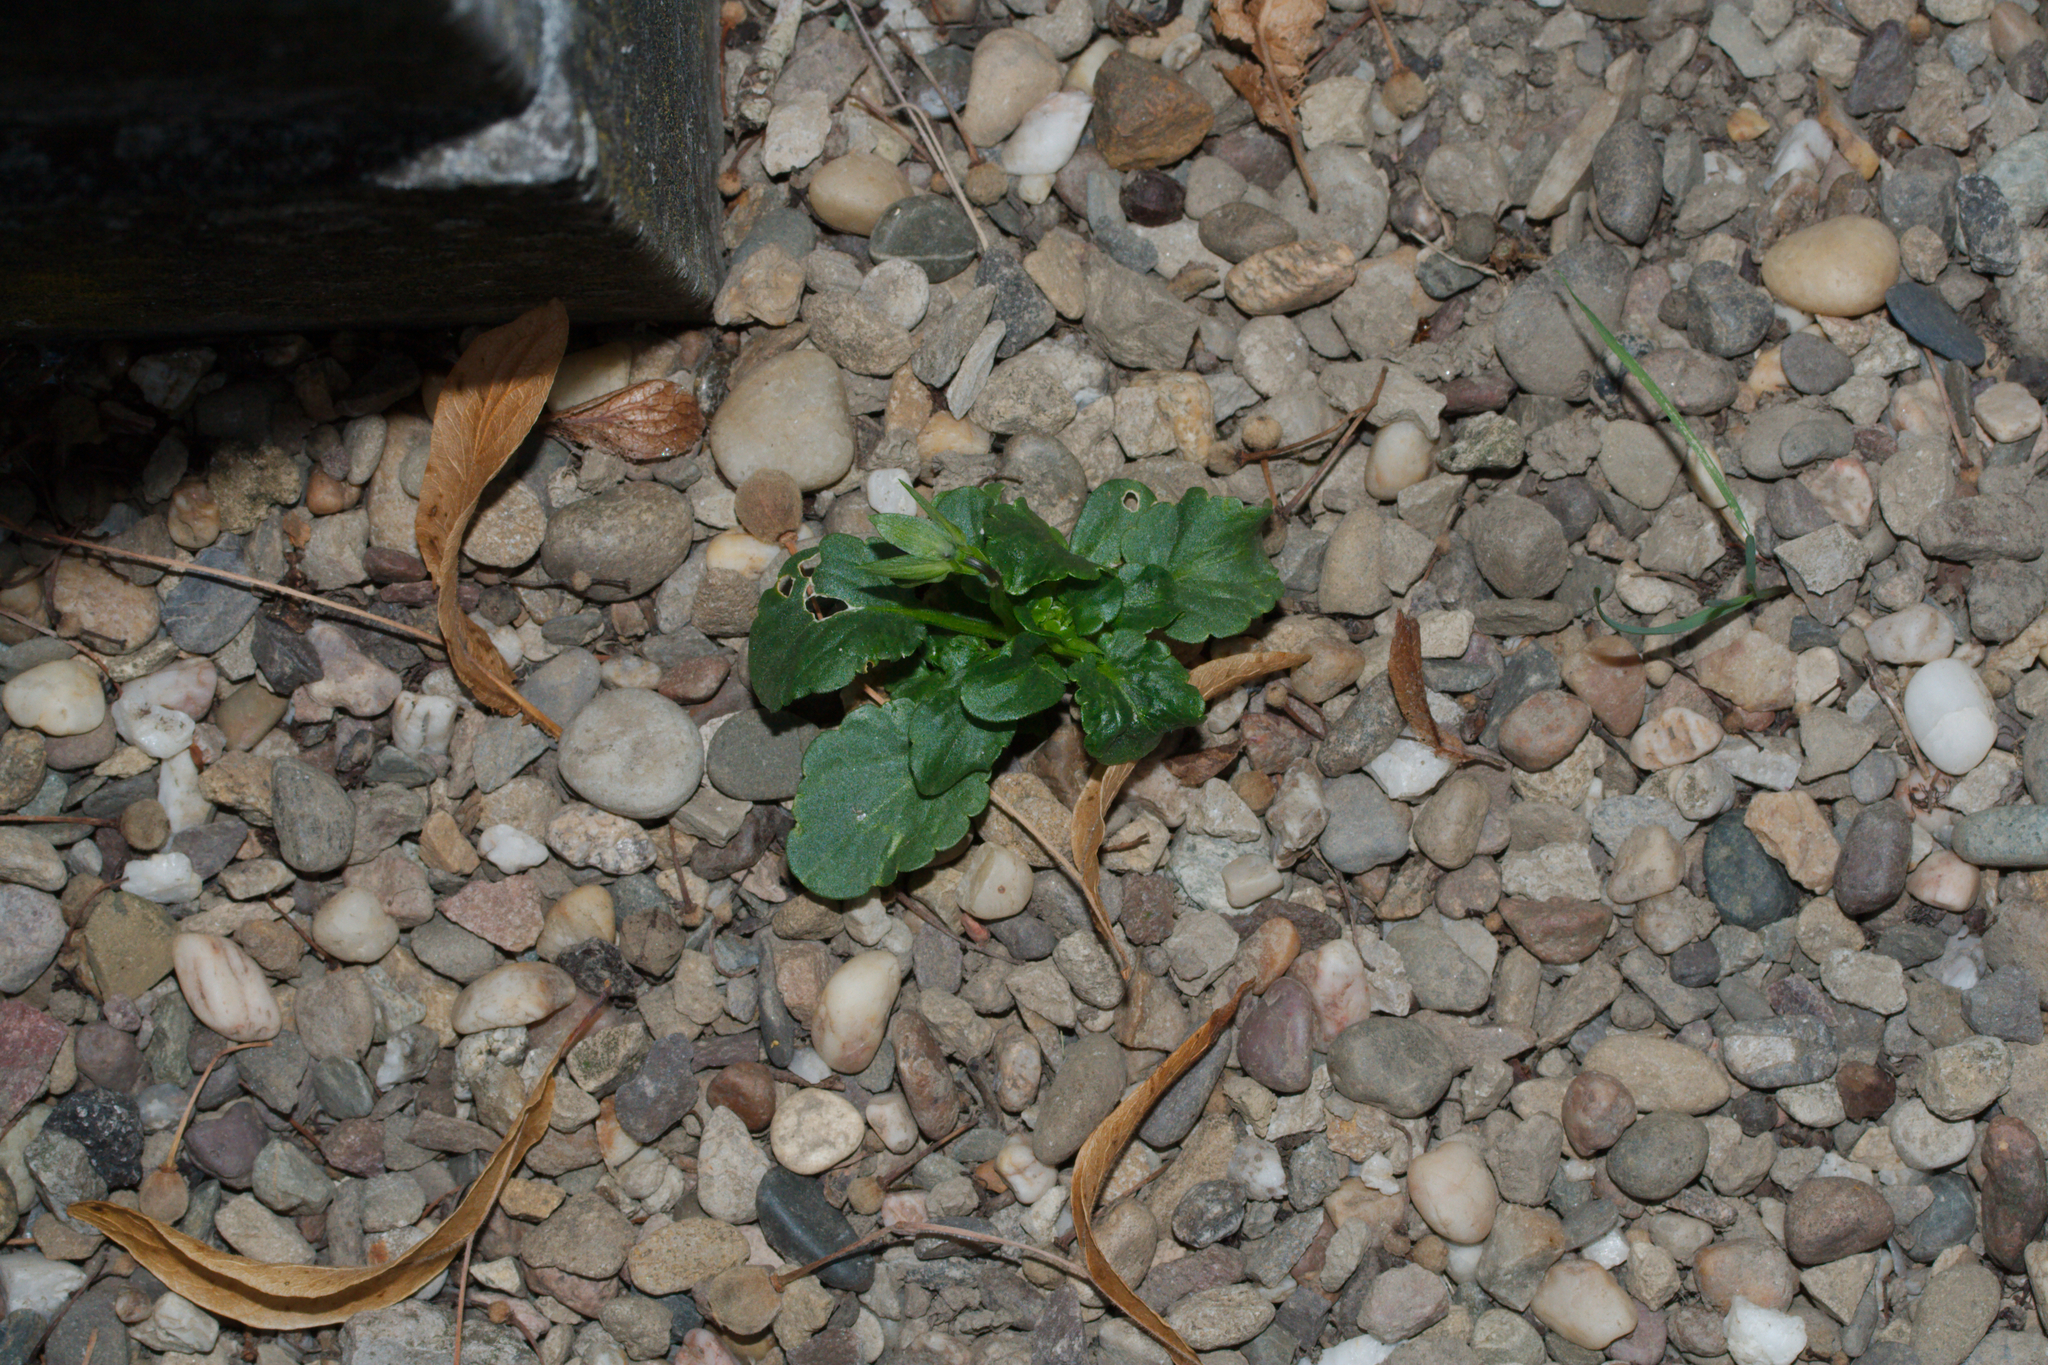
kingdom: Plantae
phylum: Tracheophyta
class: Magnoliopsida
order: Malpighiales
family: Violaceae
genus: Viola
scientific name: Viola wittrockiana
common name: Garden pansy
